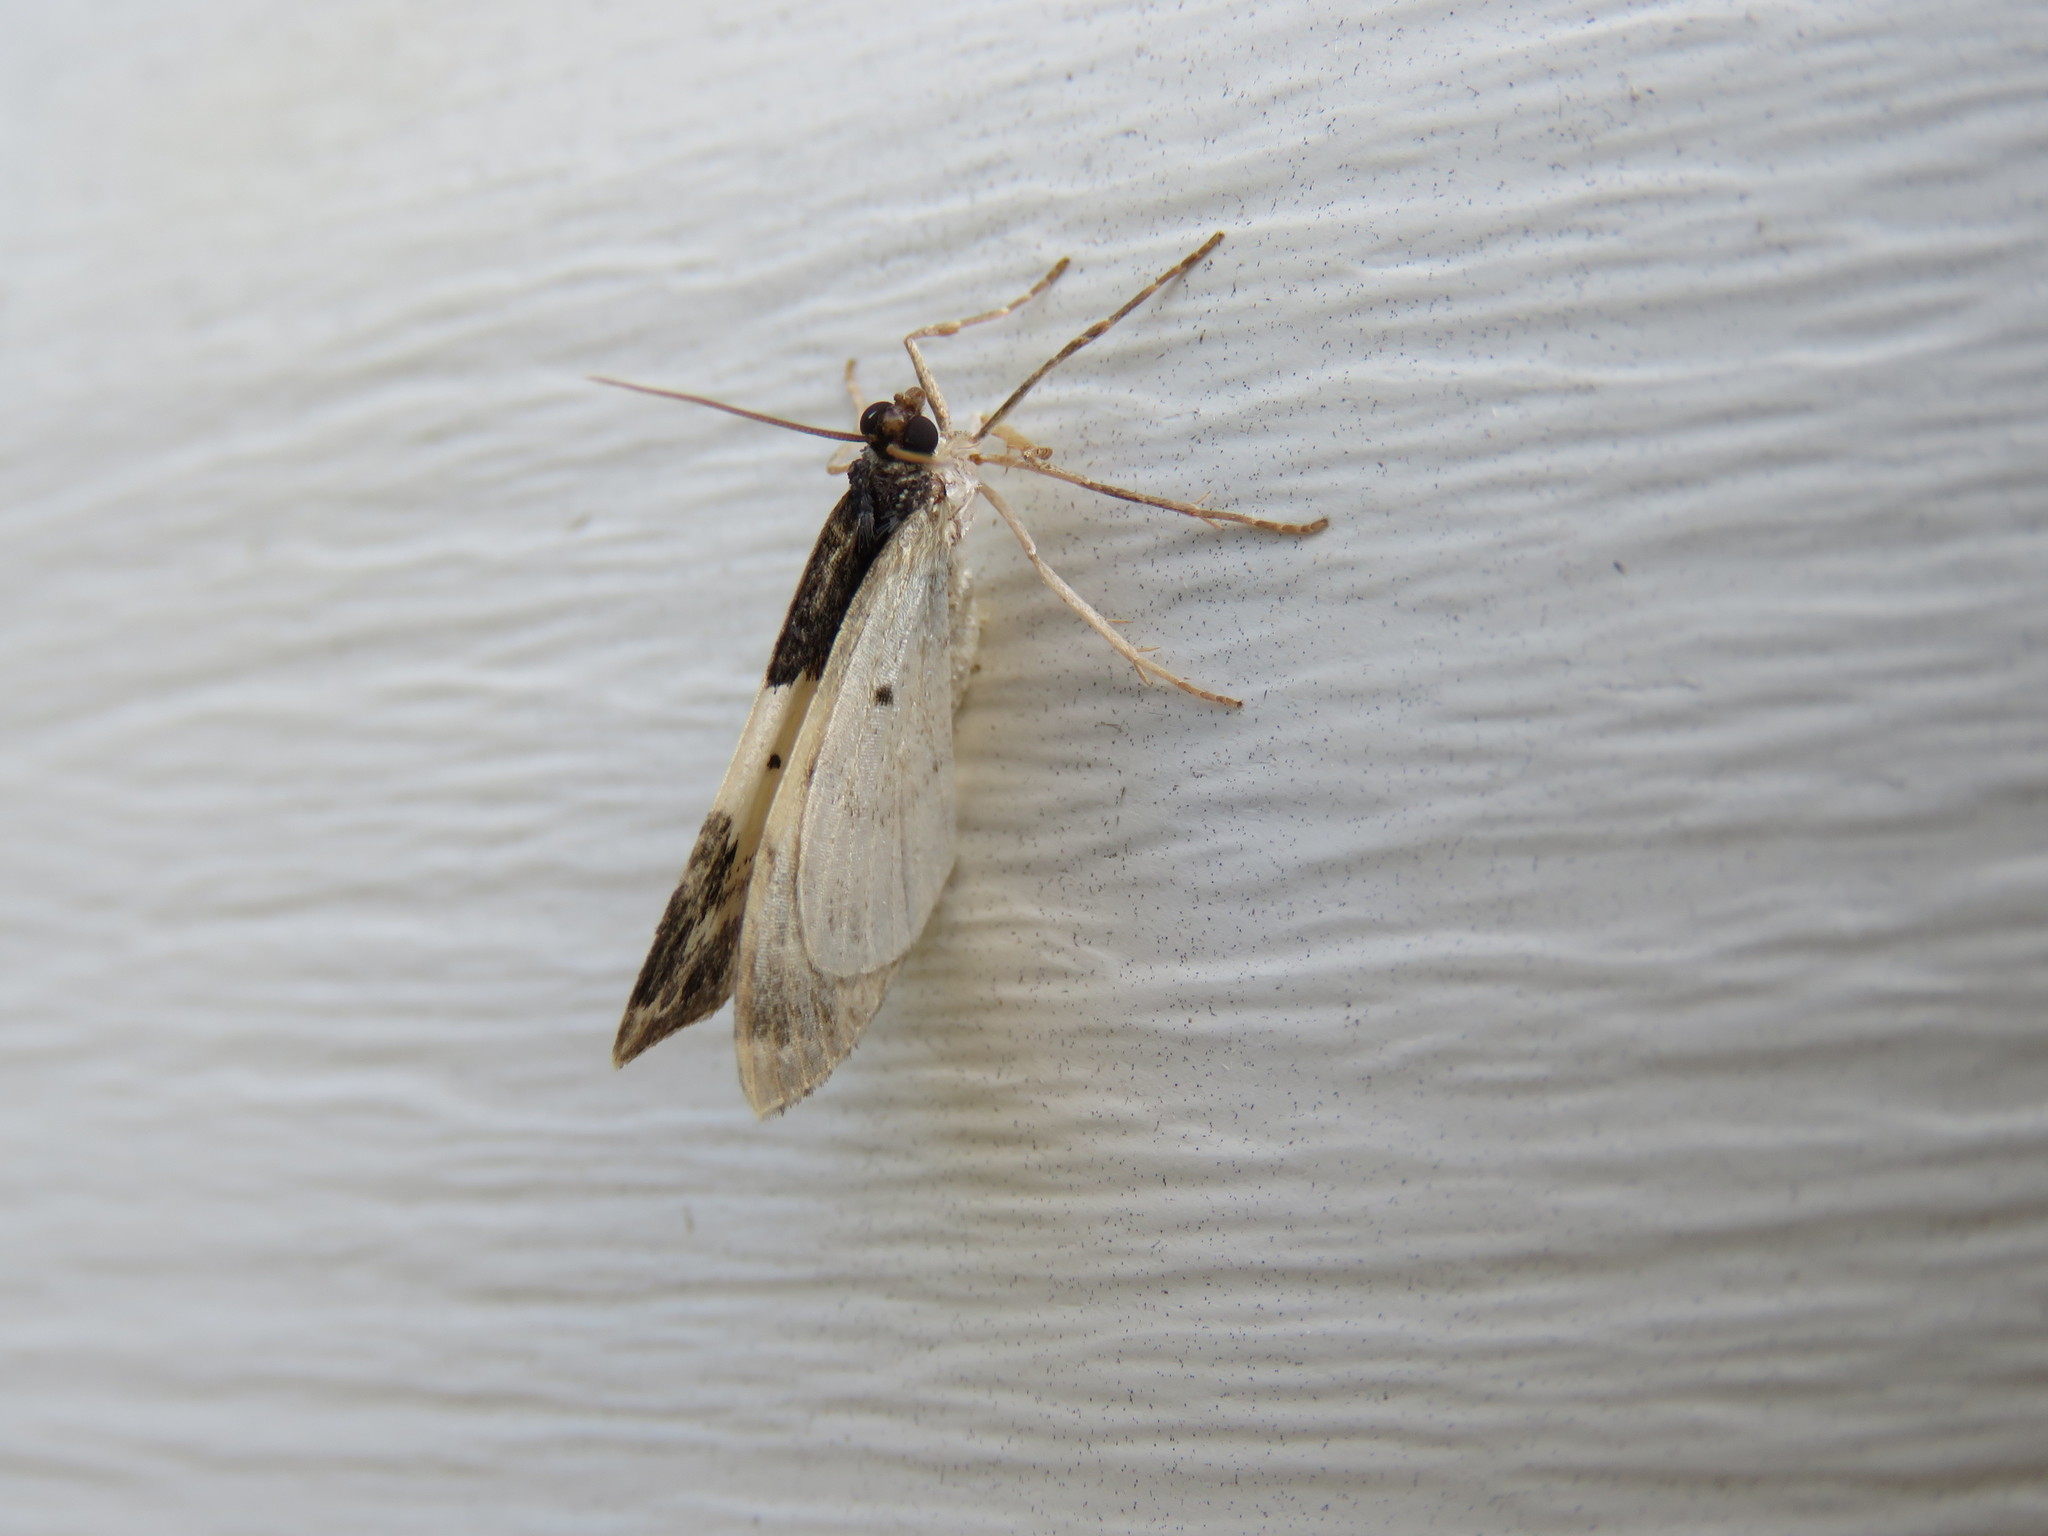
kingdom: Animalia
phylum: Arthropoda
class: Insecta
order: Lepidoptera
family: Geometridae
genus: Mesoleuca
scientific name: Mesoleuca ruficillata
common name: White-ribboned carpet moth
